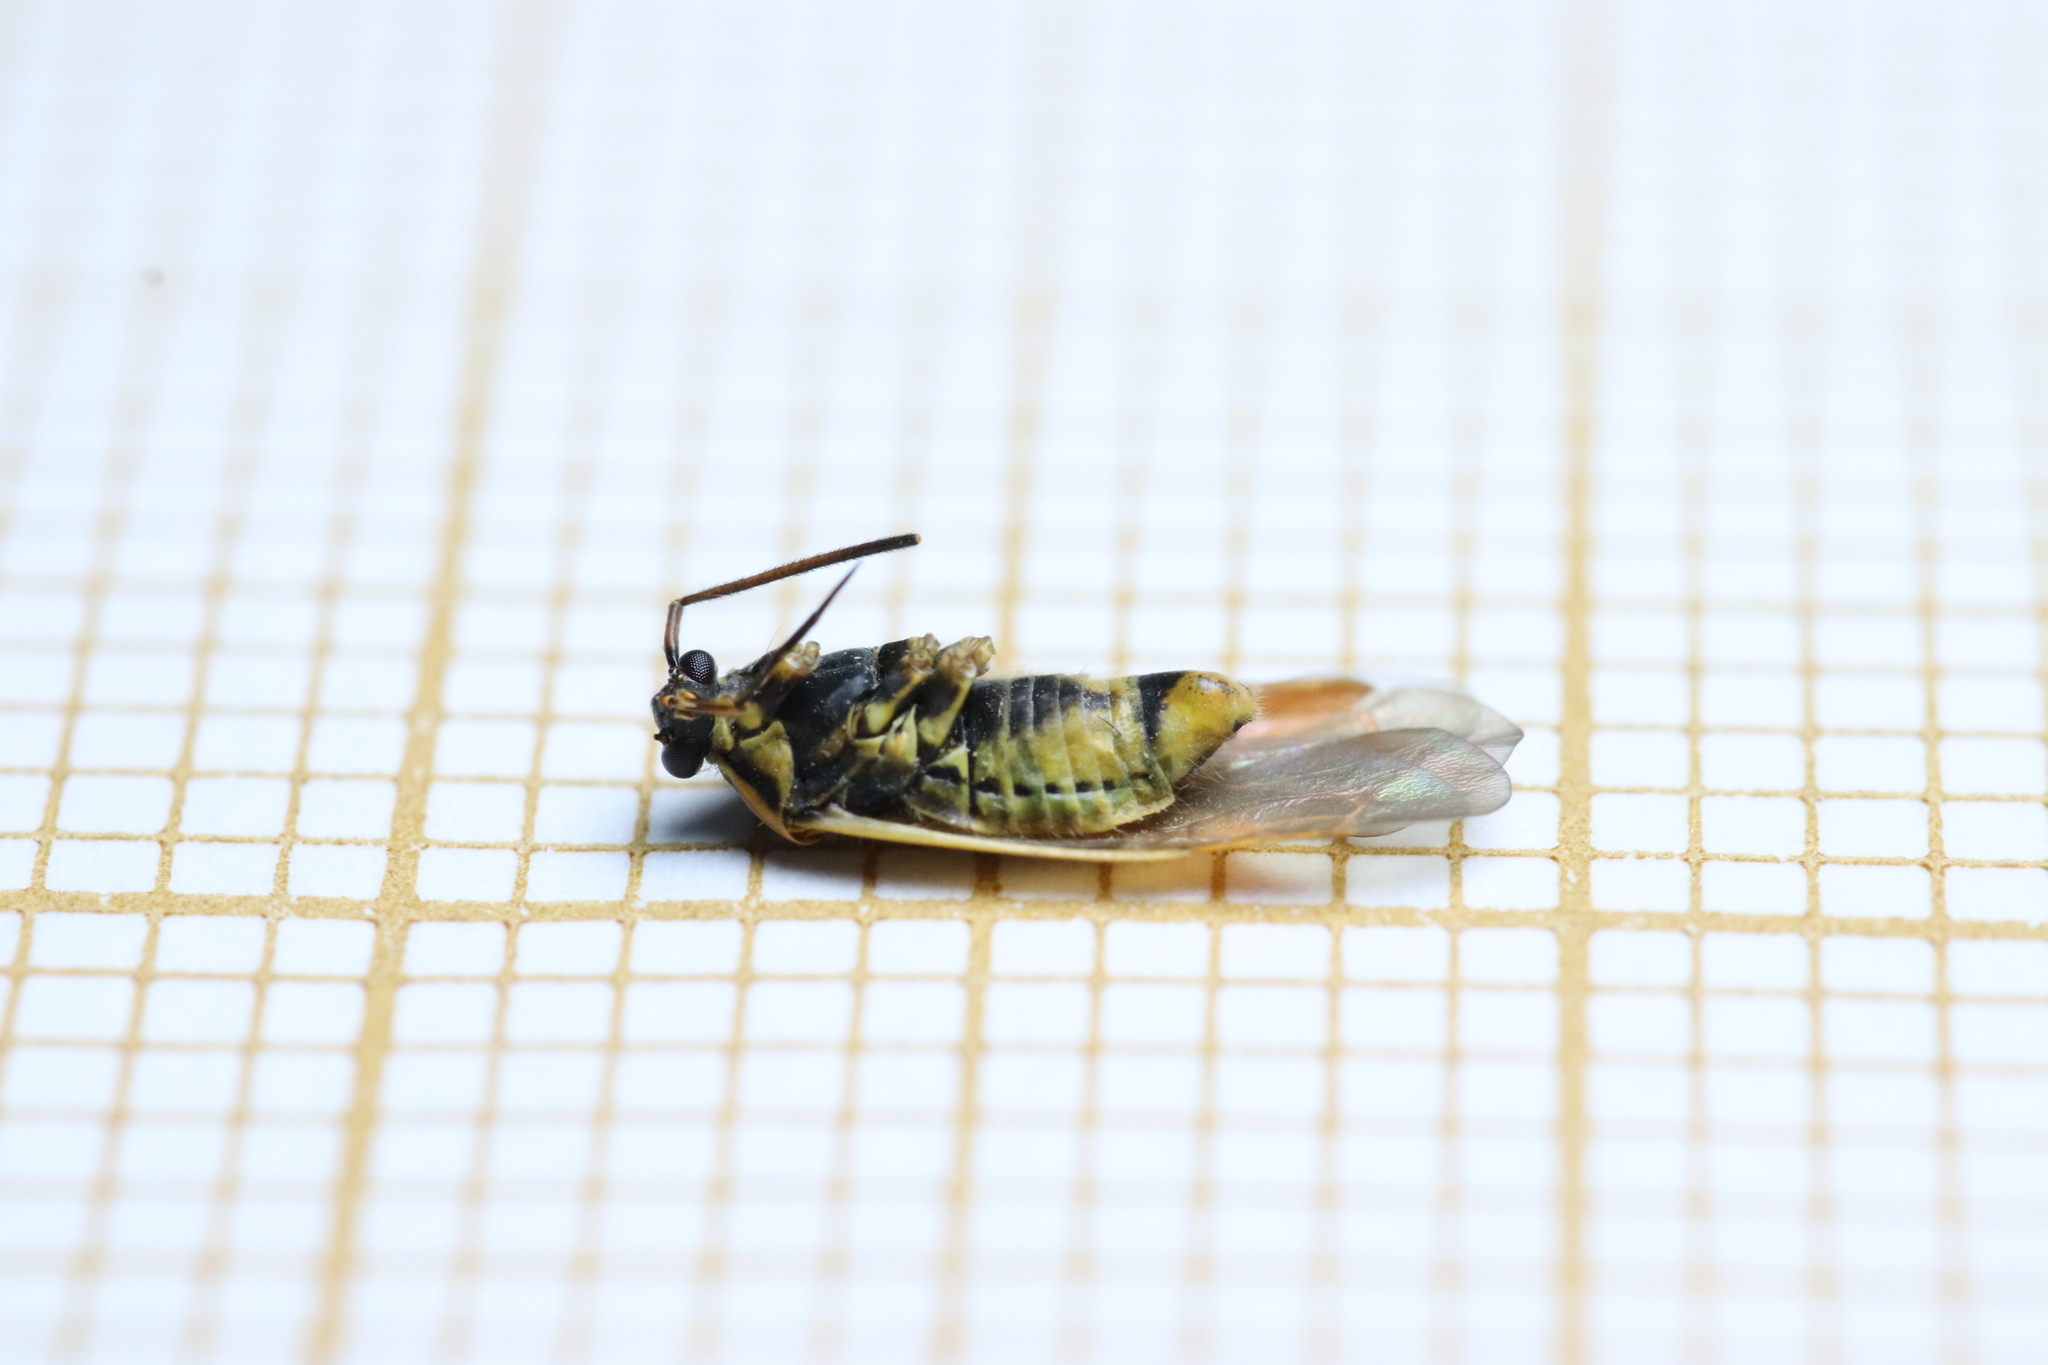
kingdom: Animalia
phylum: Arthropoda
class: Insecta
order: Hemiptera
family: Miridae
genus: Brachycoleus
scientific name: Brachycoleus pilicornis
